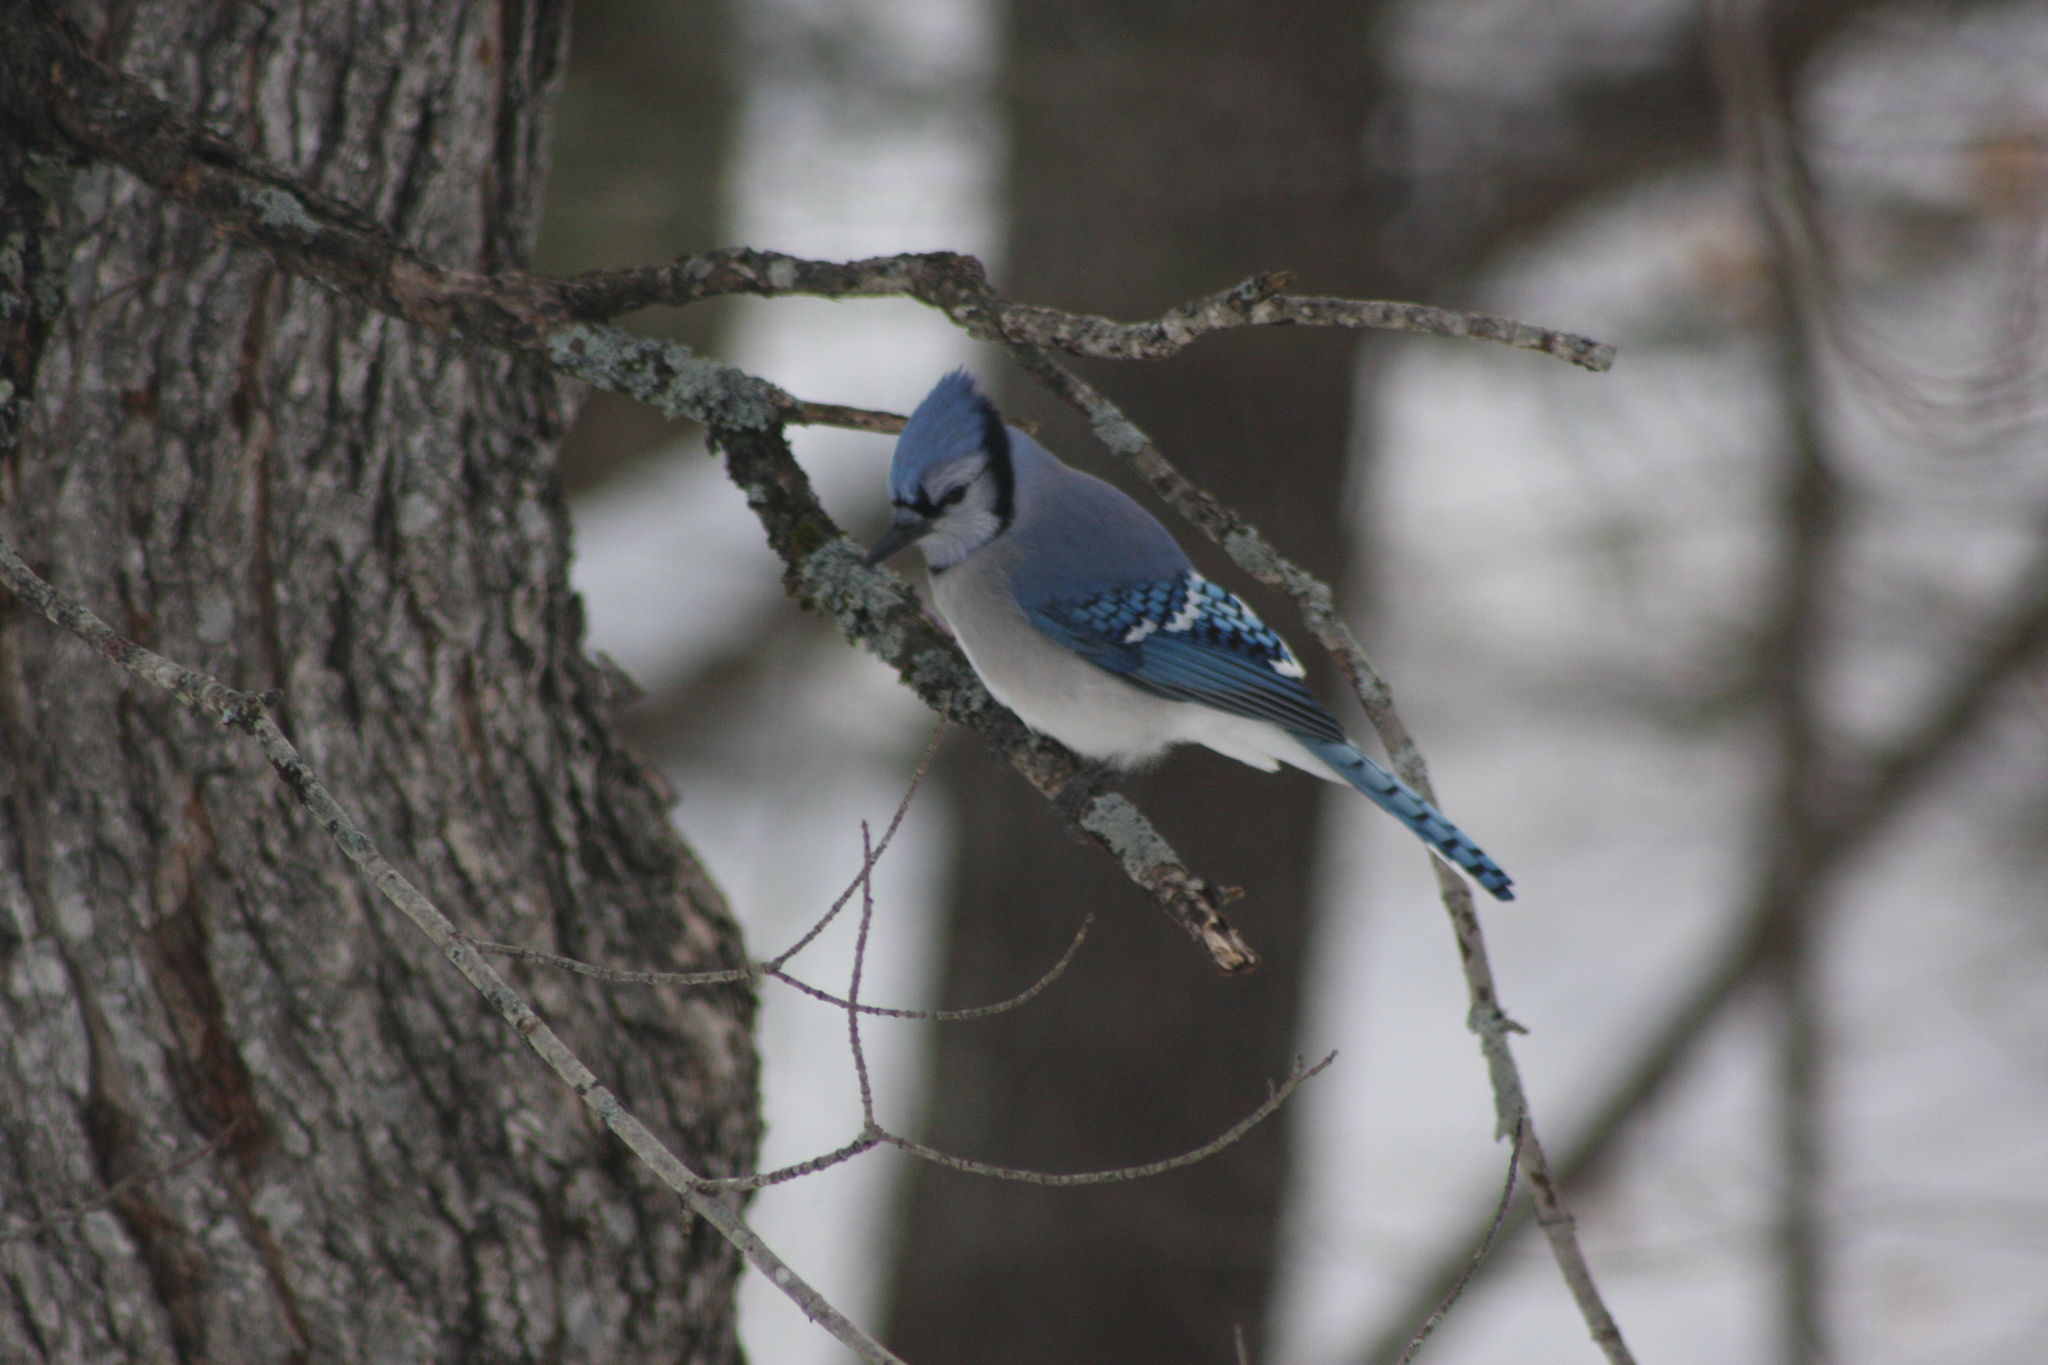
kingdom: Animalia
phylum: Chordata
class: Aves
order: Passeriformes
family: Corvidae
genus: Cyanocitta
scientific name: Cyanocitta cristata
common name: Blue jay
